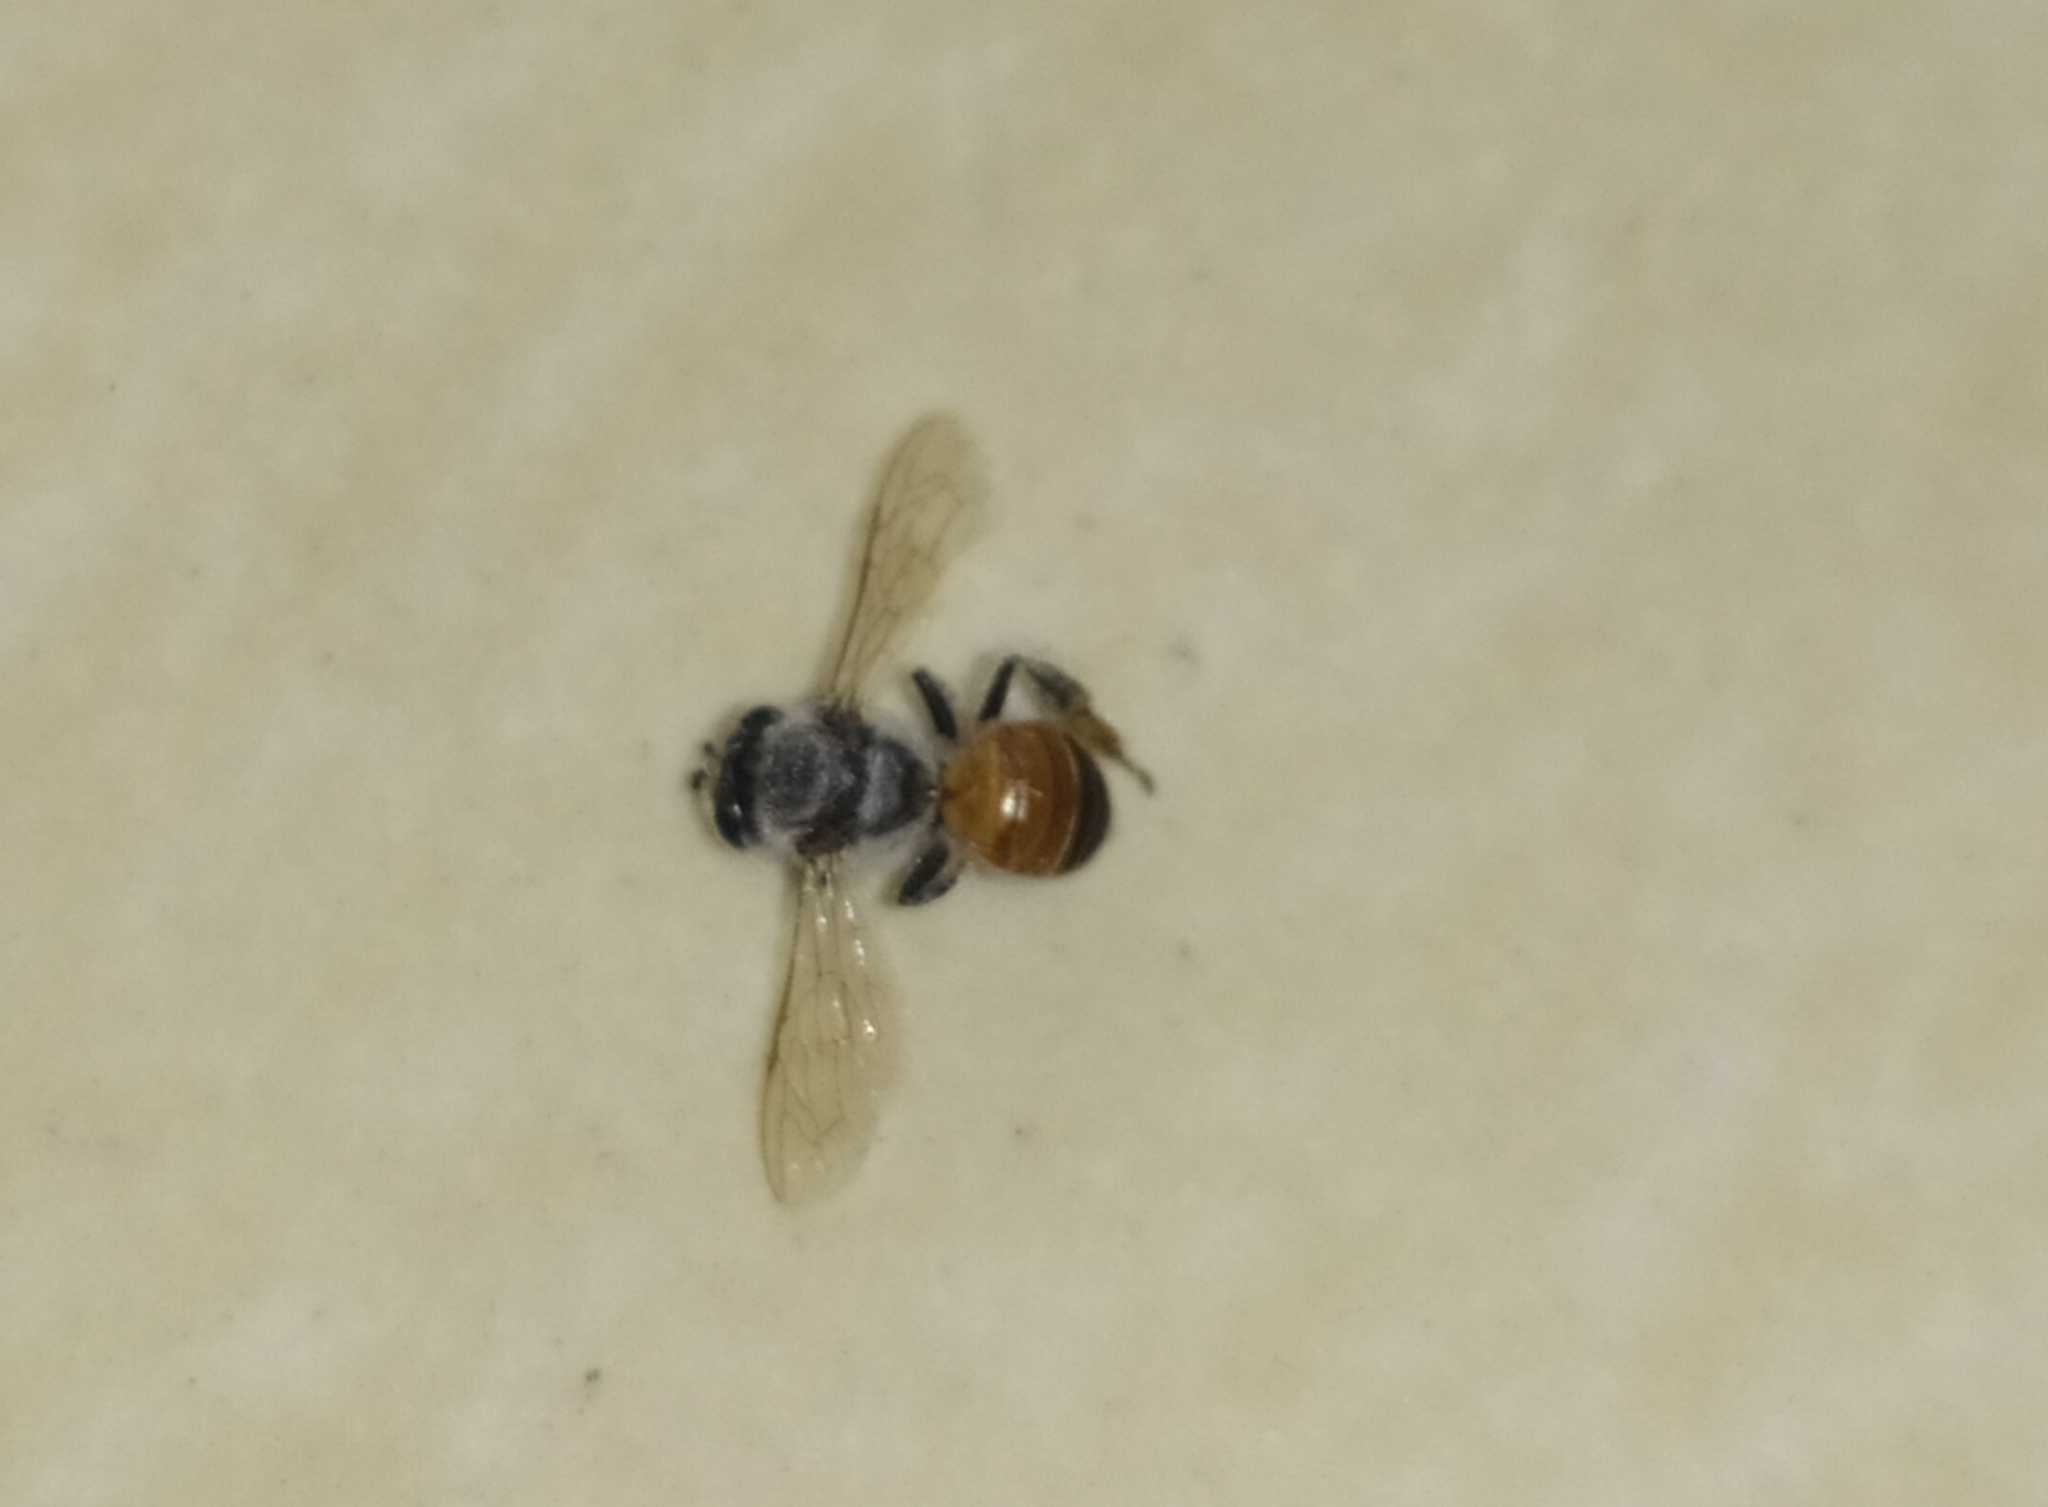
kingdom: Animalia
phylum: Arthropoda
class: Insecta
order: Hymenoptera
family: Apidae
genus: Apis
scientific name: Apis florea
